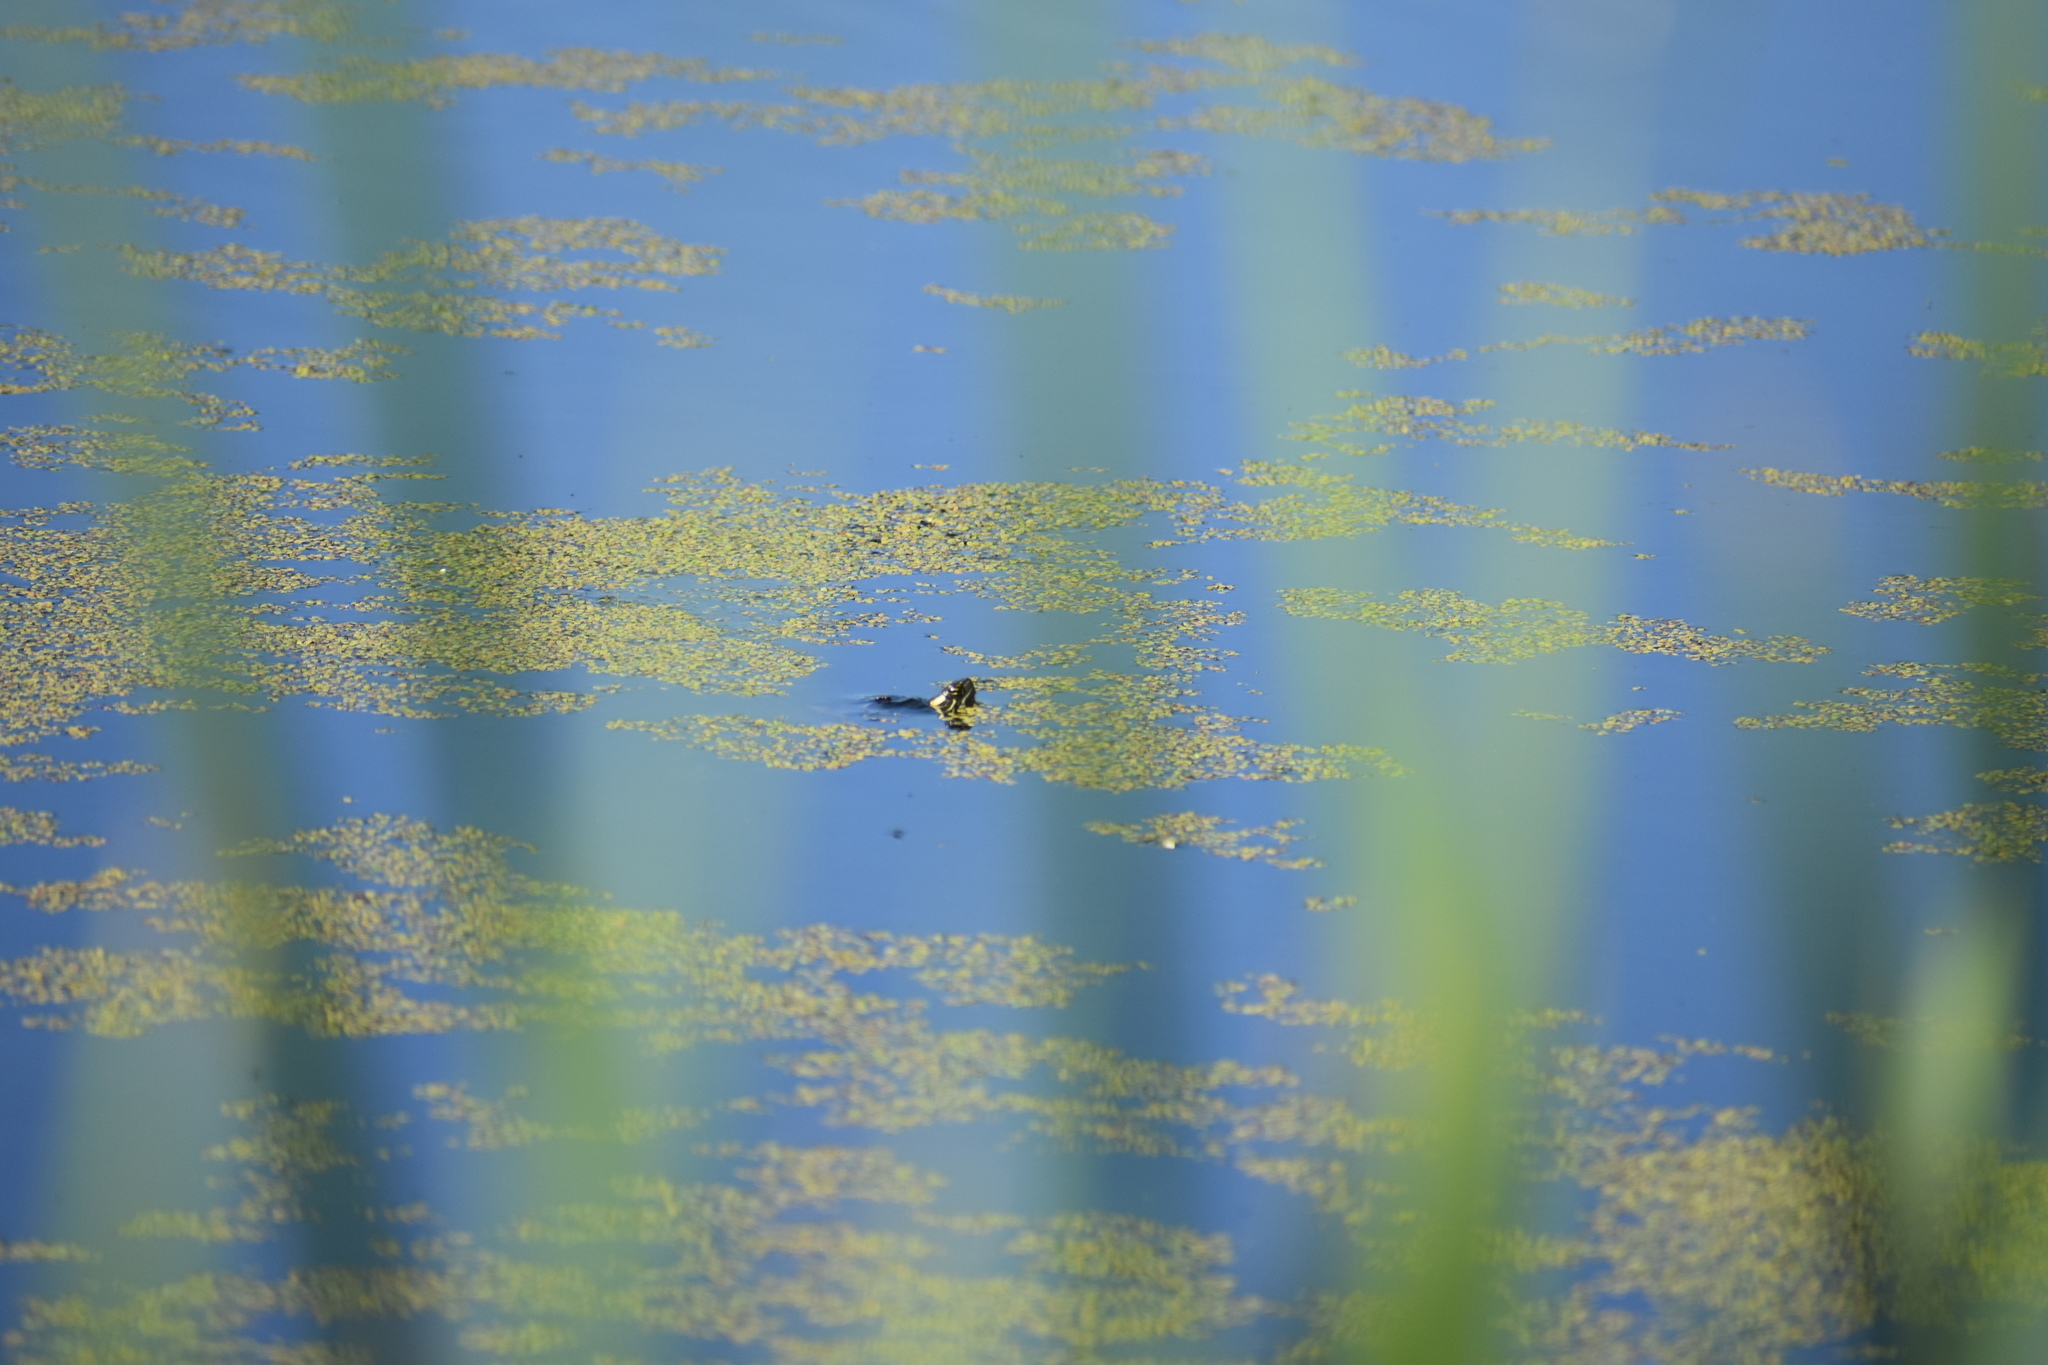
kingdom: Animalia
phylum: Chordata
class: Testudines
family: Emydidae
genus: Chrysemys
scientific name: Chrysemys picta
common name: Painted turtle
